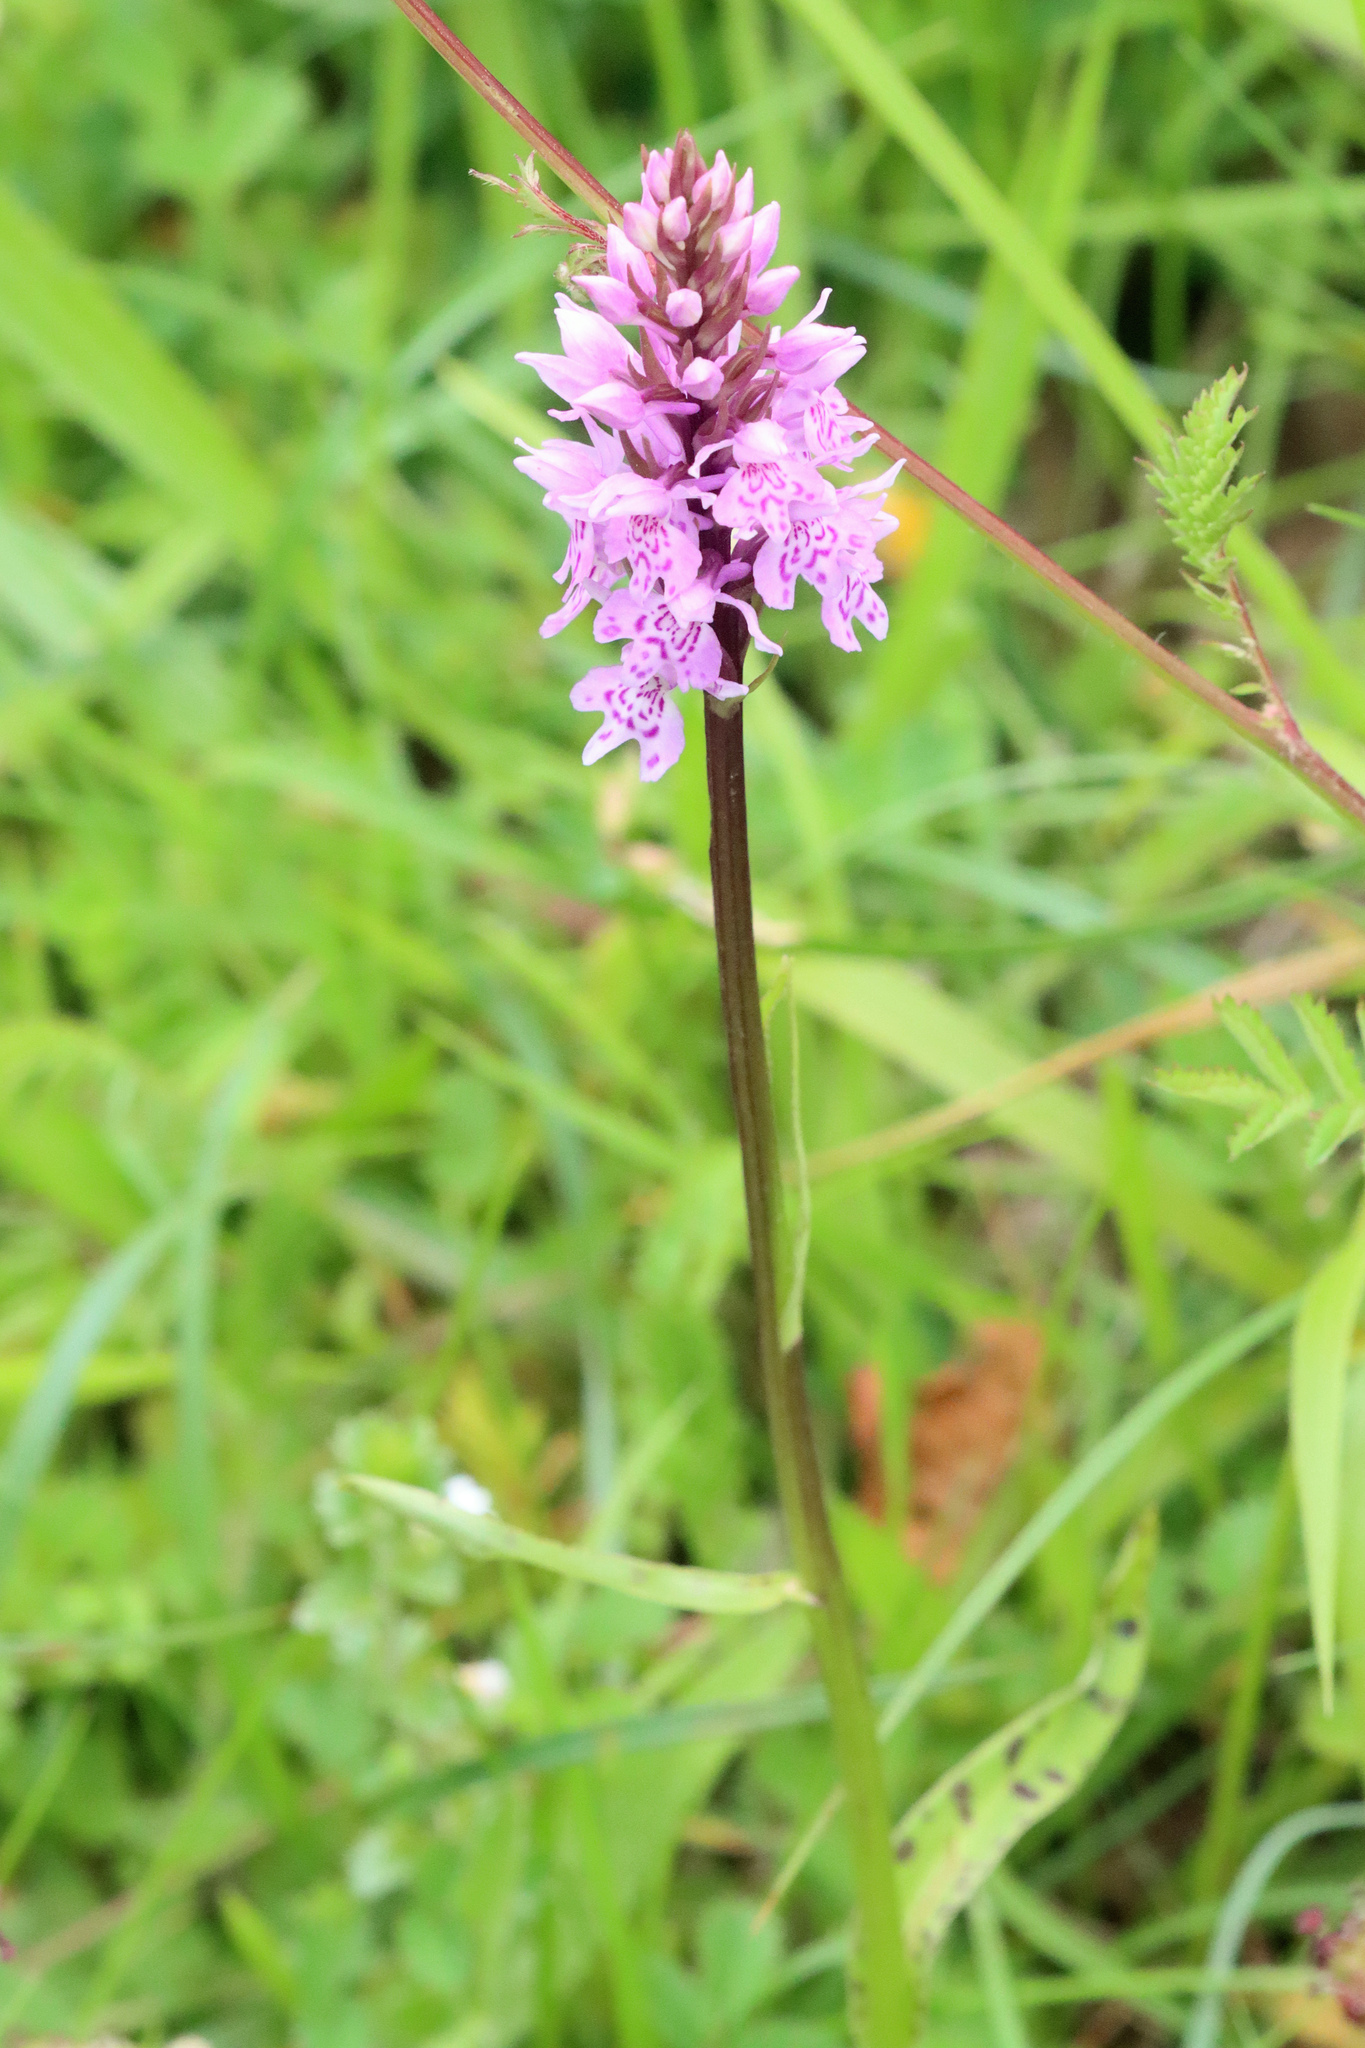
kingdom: Plantae
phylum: Tracheophyta
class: Liliopsida
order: Asparagales
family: Orchidaceae
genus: Dactylorhiza
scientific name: Dactylorhiza maculata
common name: Heath spotted-orchid
